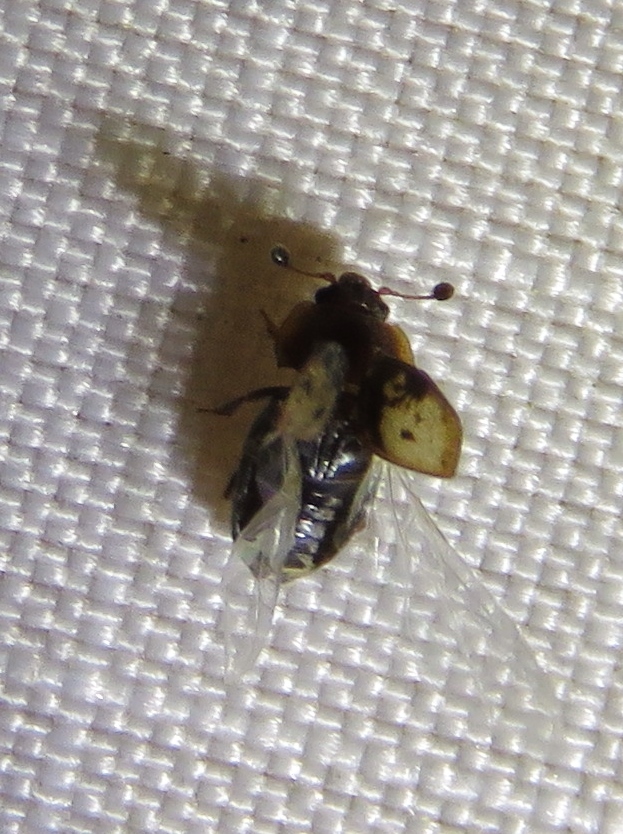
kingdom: Animalia
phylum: Arthropoda
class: Insecta
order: Coleoptera
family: Nitidulidae
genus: Omosita
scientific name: Omosita nearctica
